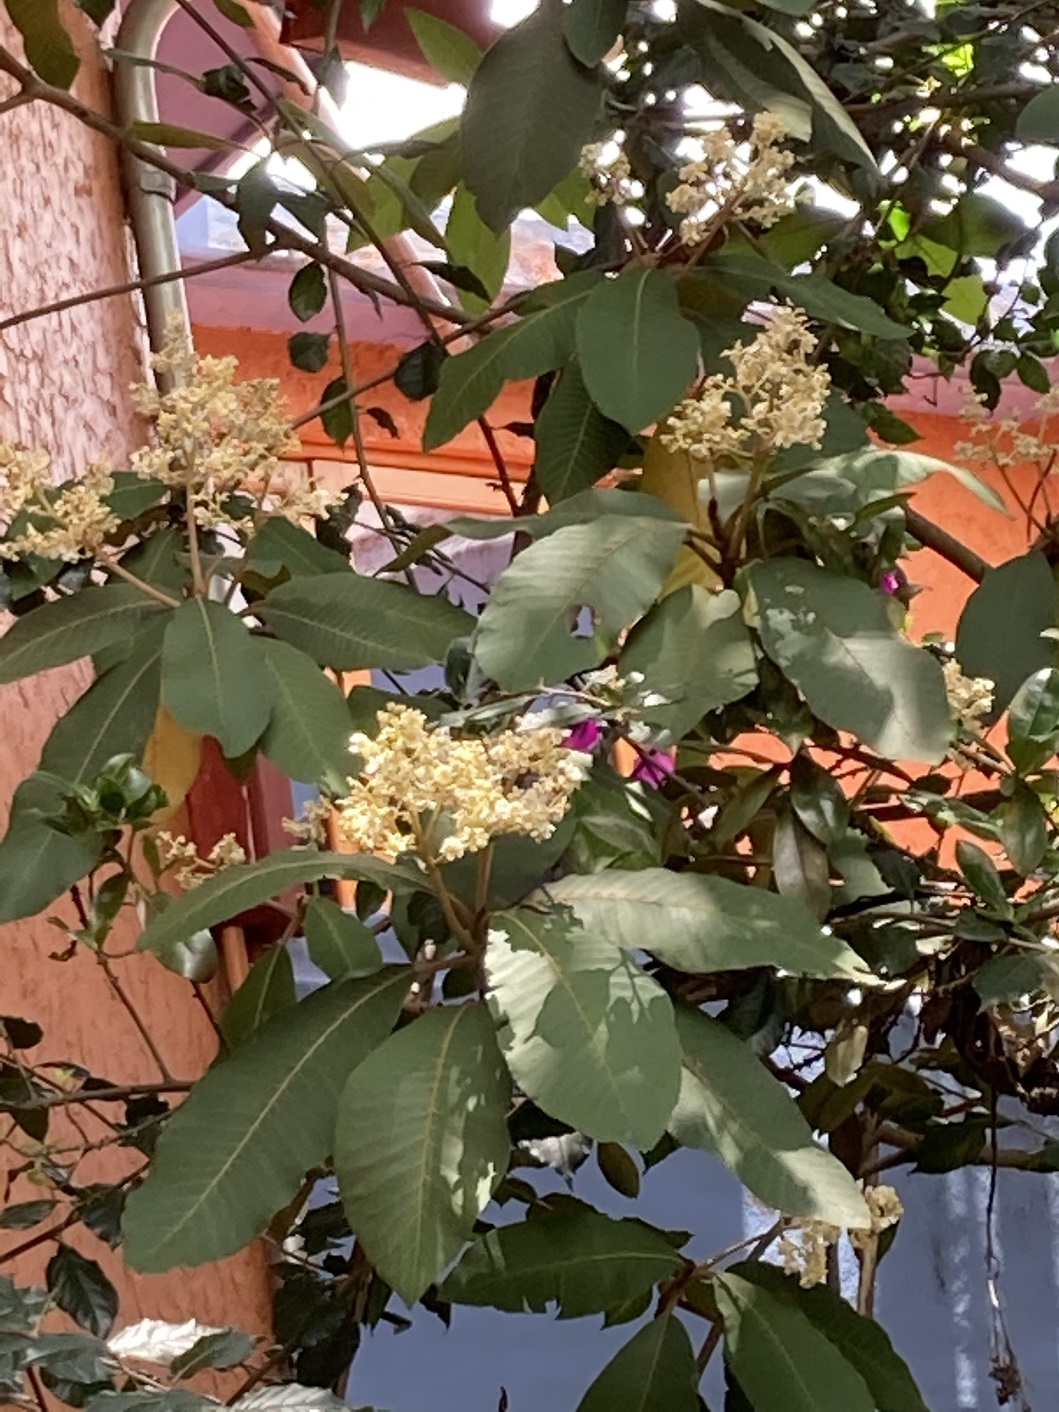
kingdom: Plantae
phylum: Tracheophyta
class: Magnoliopsida
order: Ericales
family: Actinidiaceae
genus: Saurauia
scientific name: Saurauia scabrida
